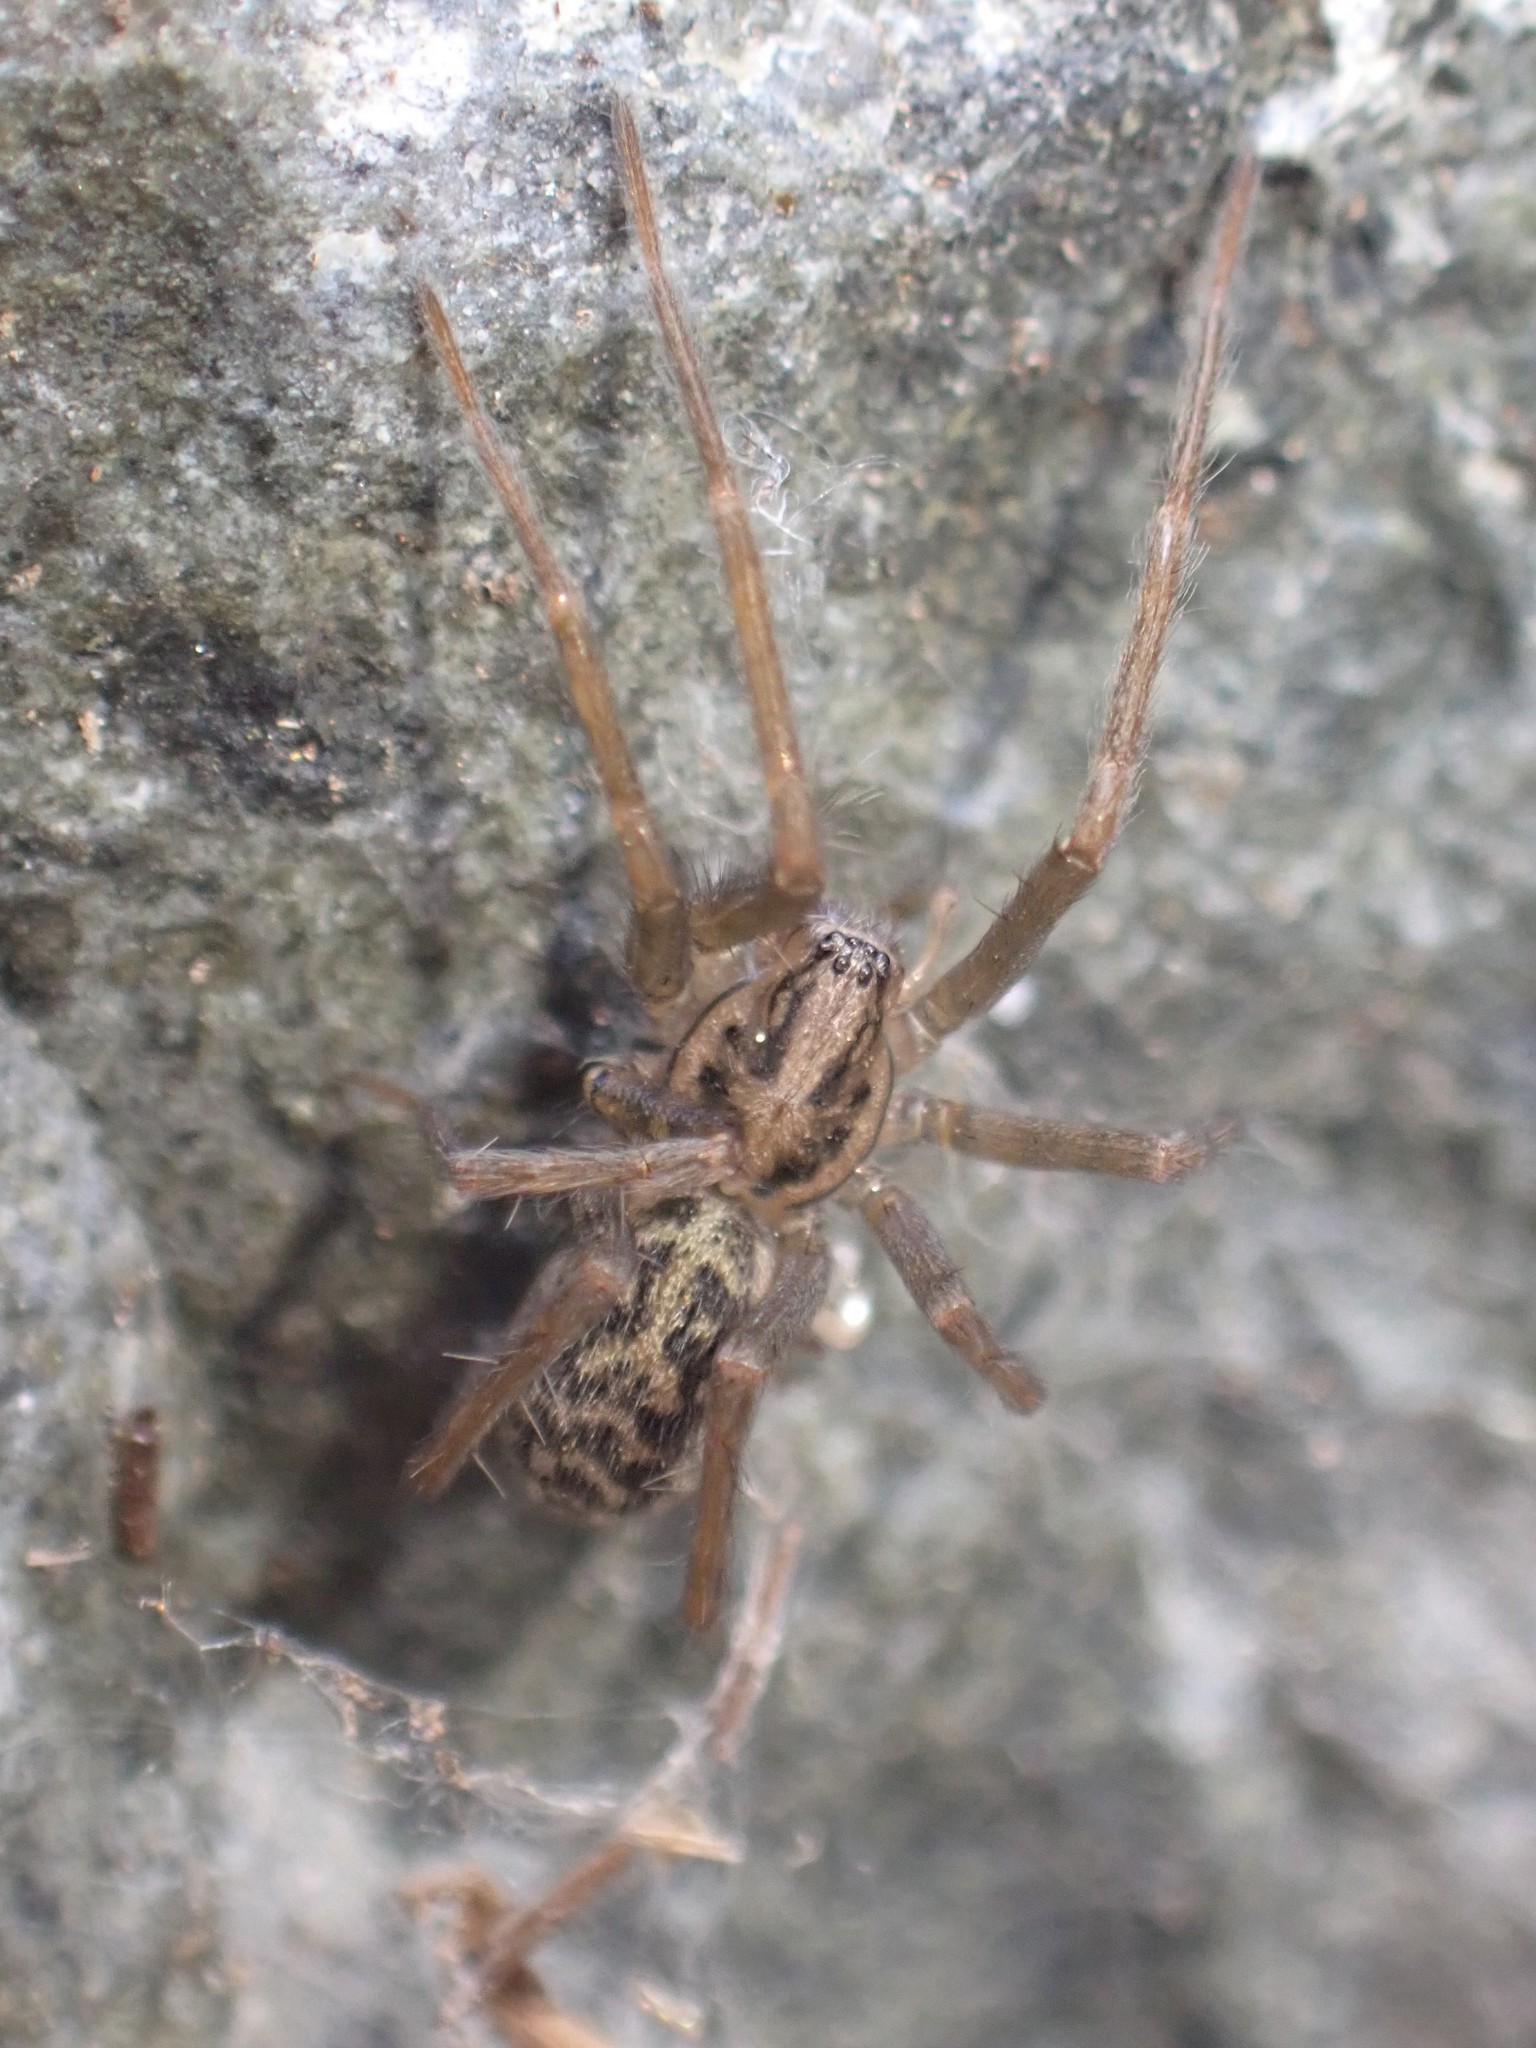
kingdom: Animalia
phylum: Arthropoda
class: Arachnida
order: Araneae
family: Agelenidae
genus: Eratigena
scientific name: Eratigena duellica
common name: Giant house spider
